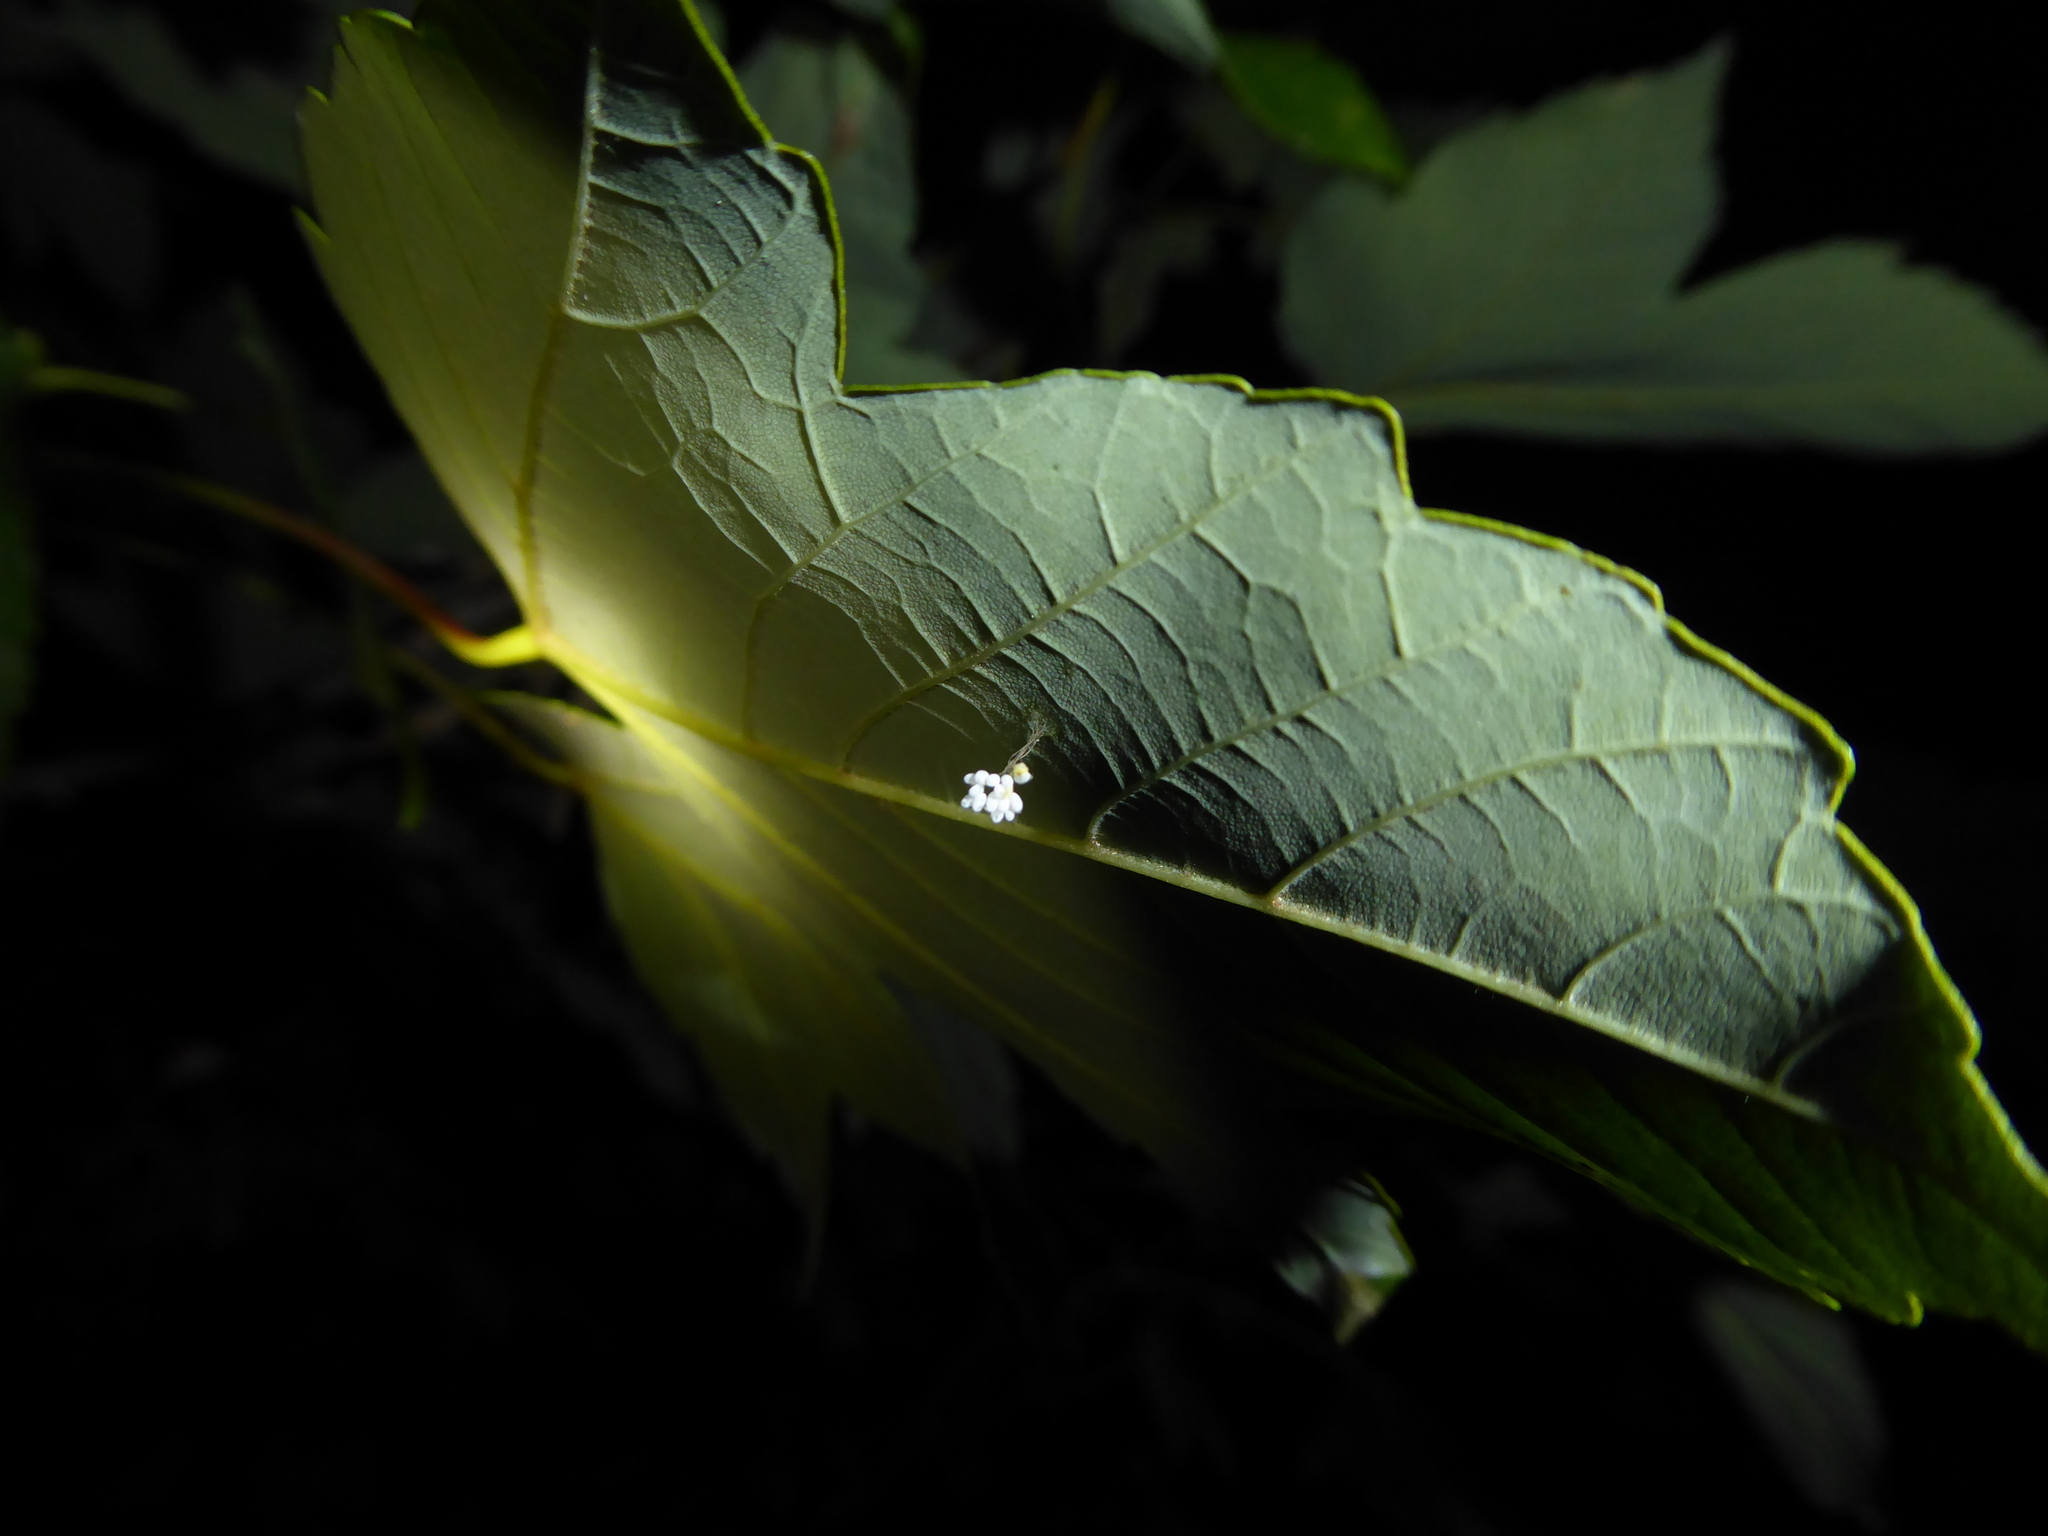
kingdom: Animalia
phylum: Arthropoda
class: Insecta
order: Neuroptera
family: Chrysopidae
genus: Pseudomallada
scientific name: Pseudomallada
